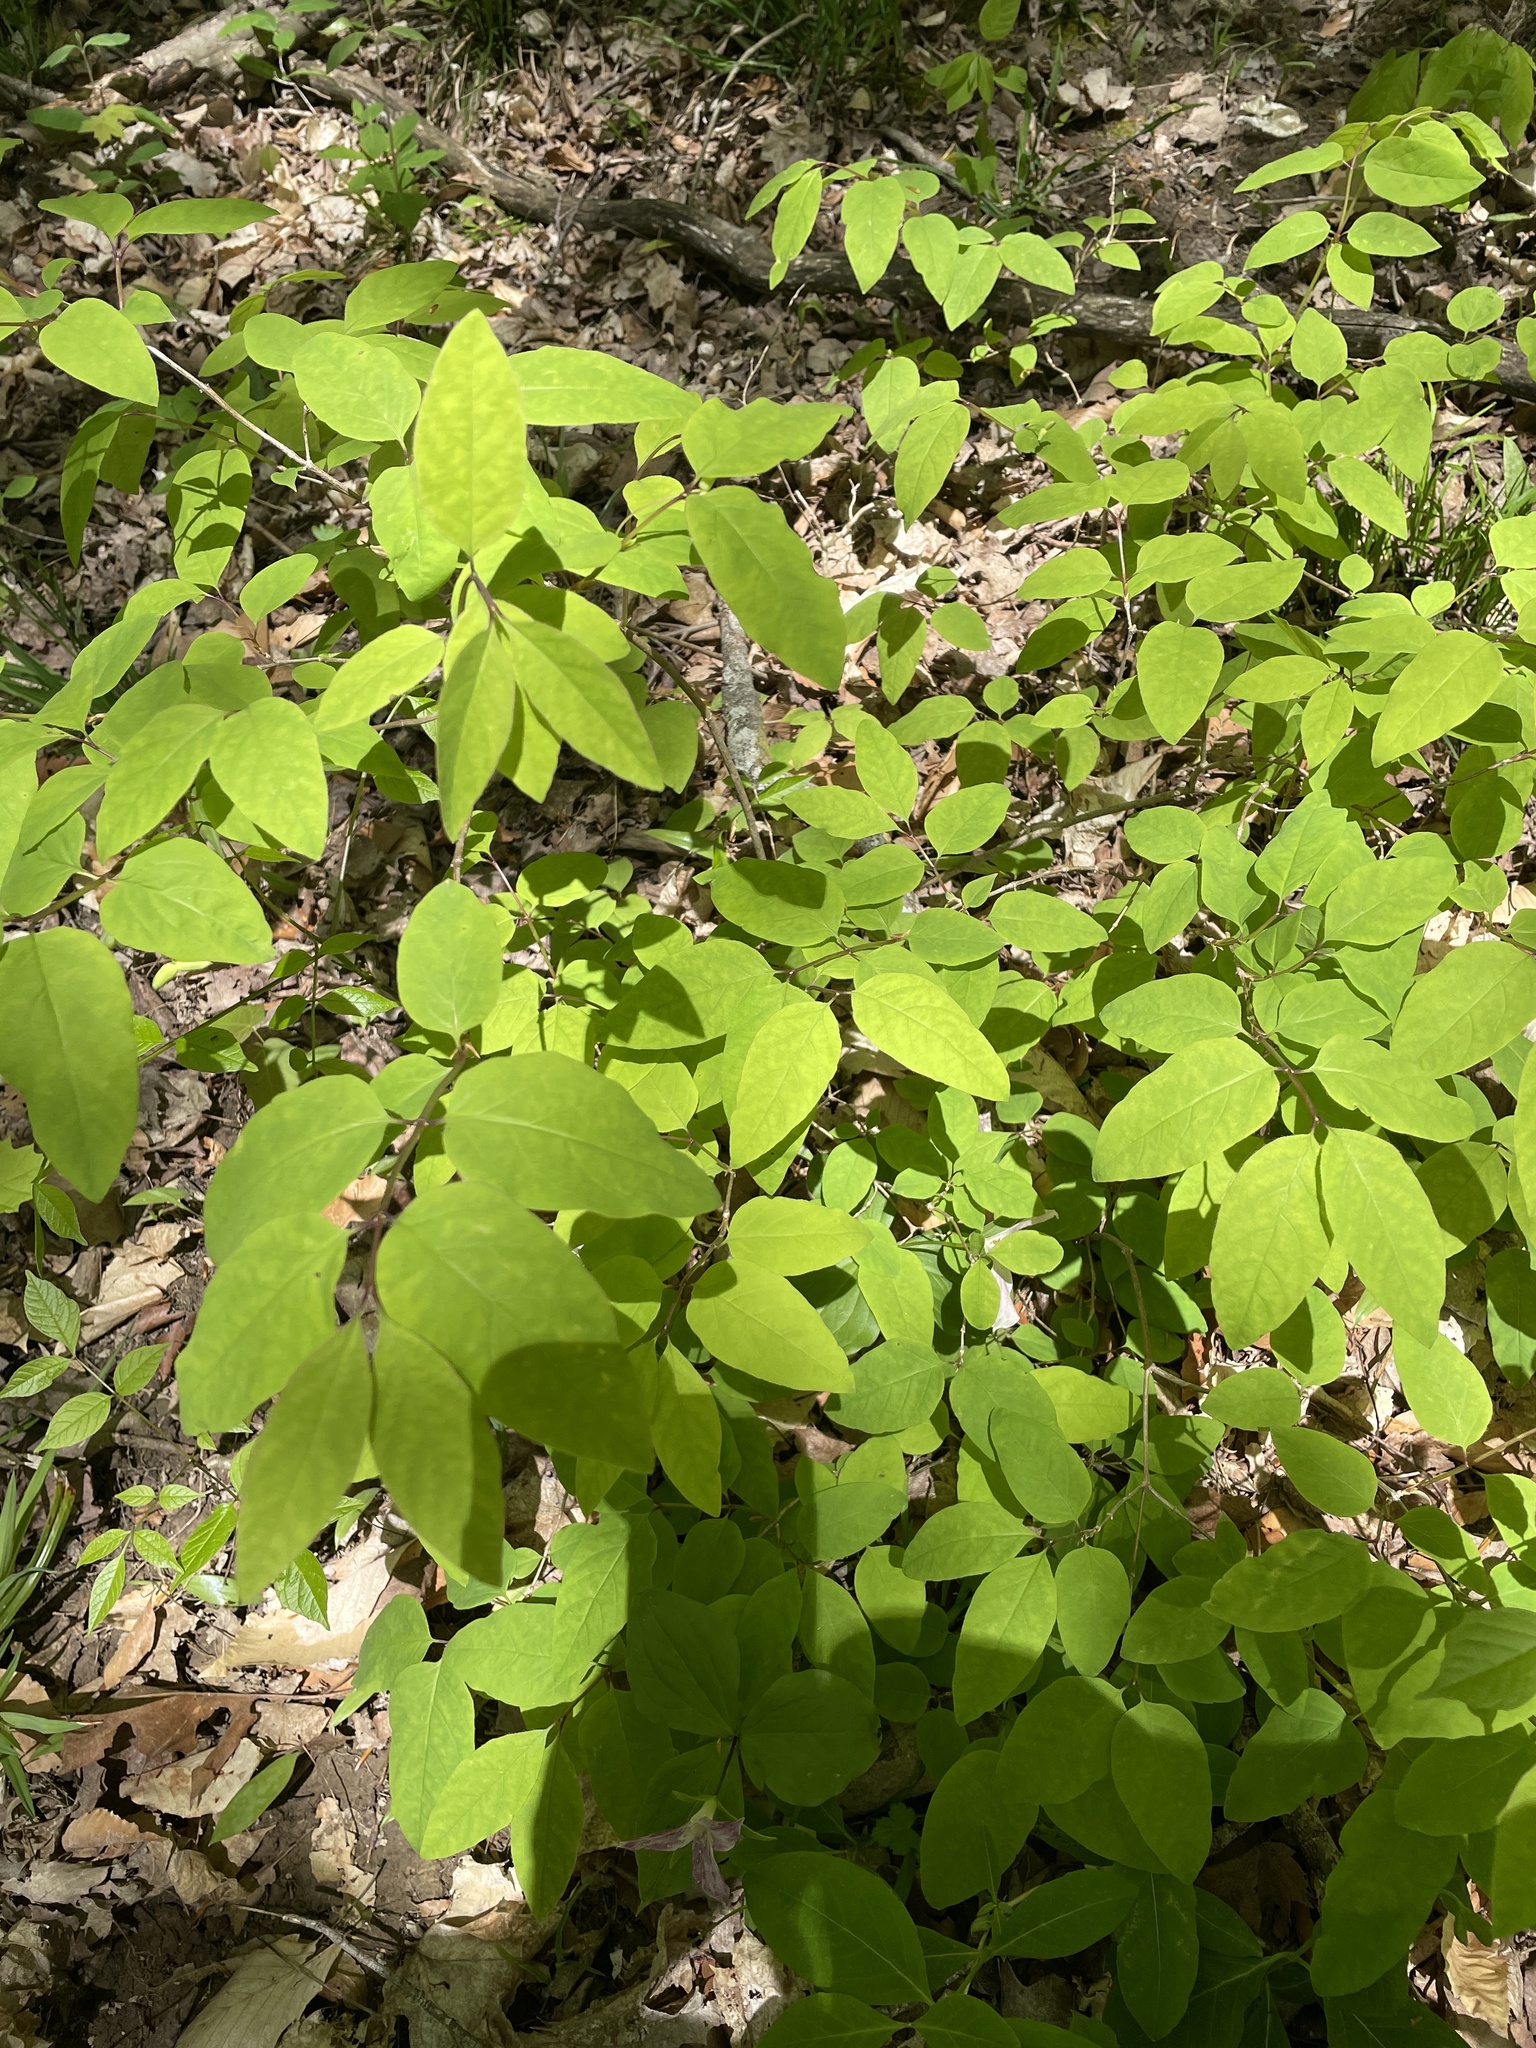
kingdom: Plantae
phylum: Tracheophyta
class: Magnoliopsida
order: Dipsacales
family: Caprifoliaceae
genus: Lonicera
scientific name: Lonicera canadensis
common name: American fly-honeysuckle
